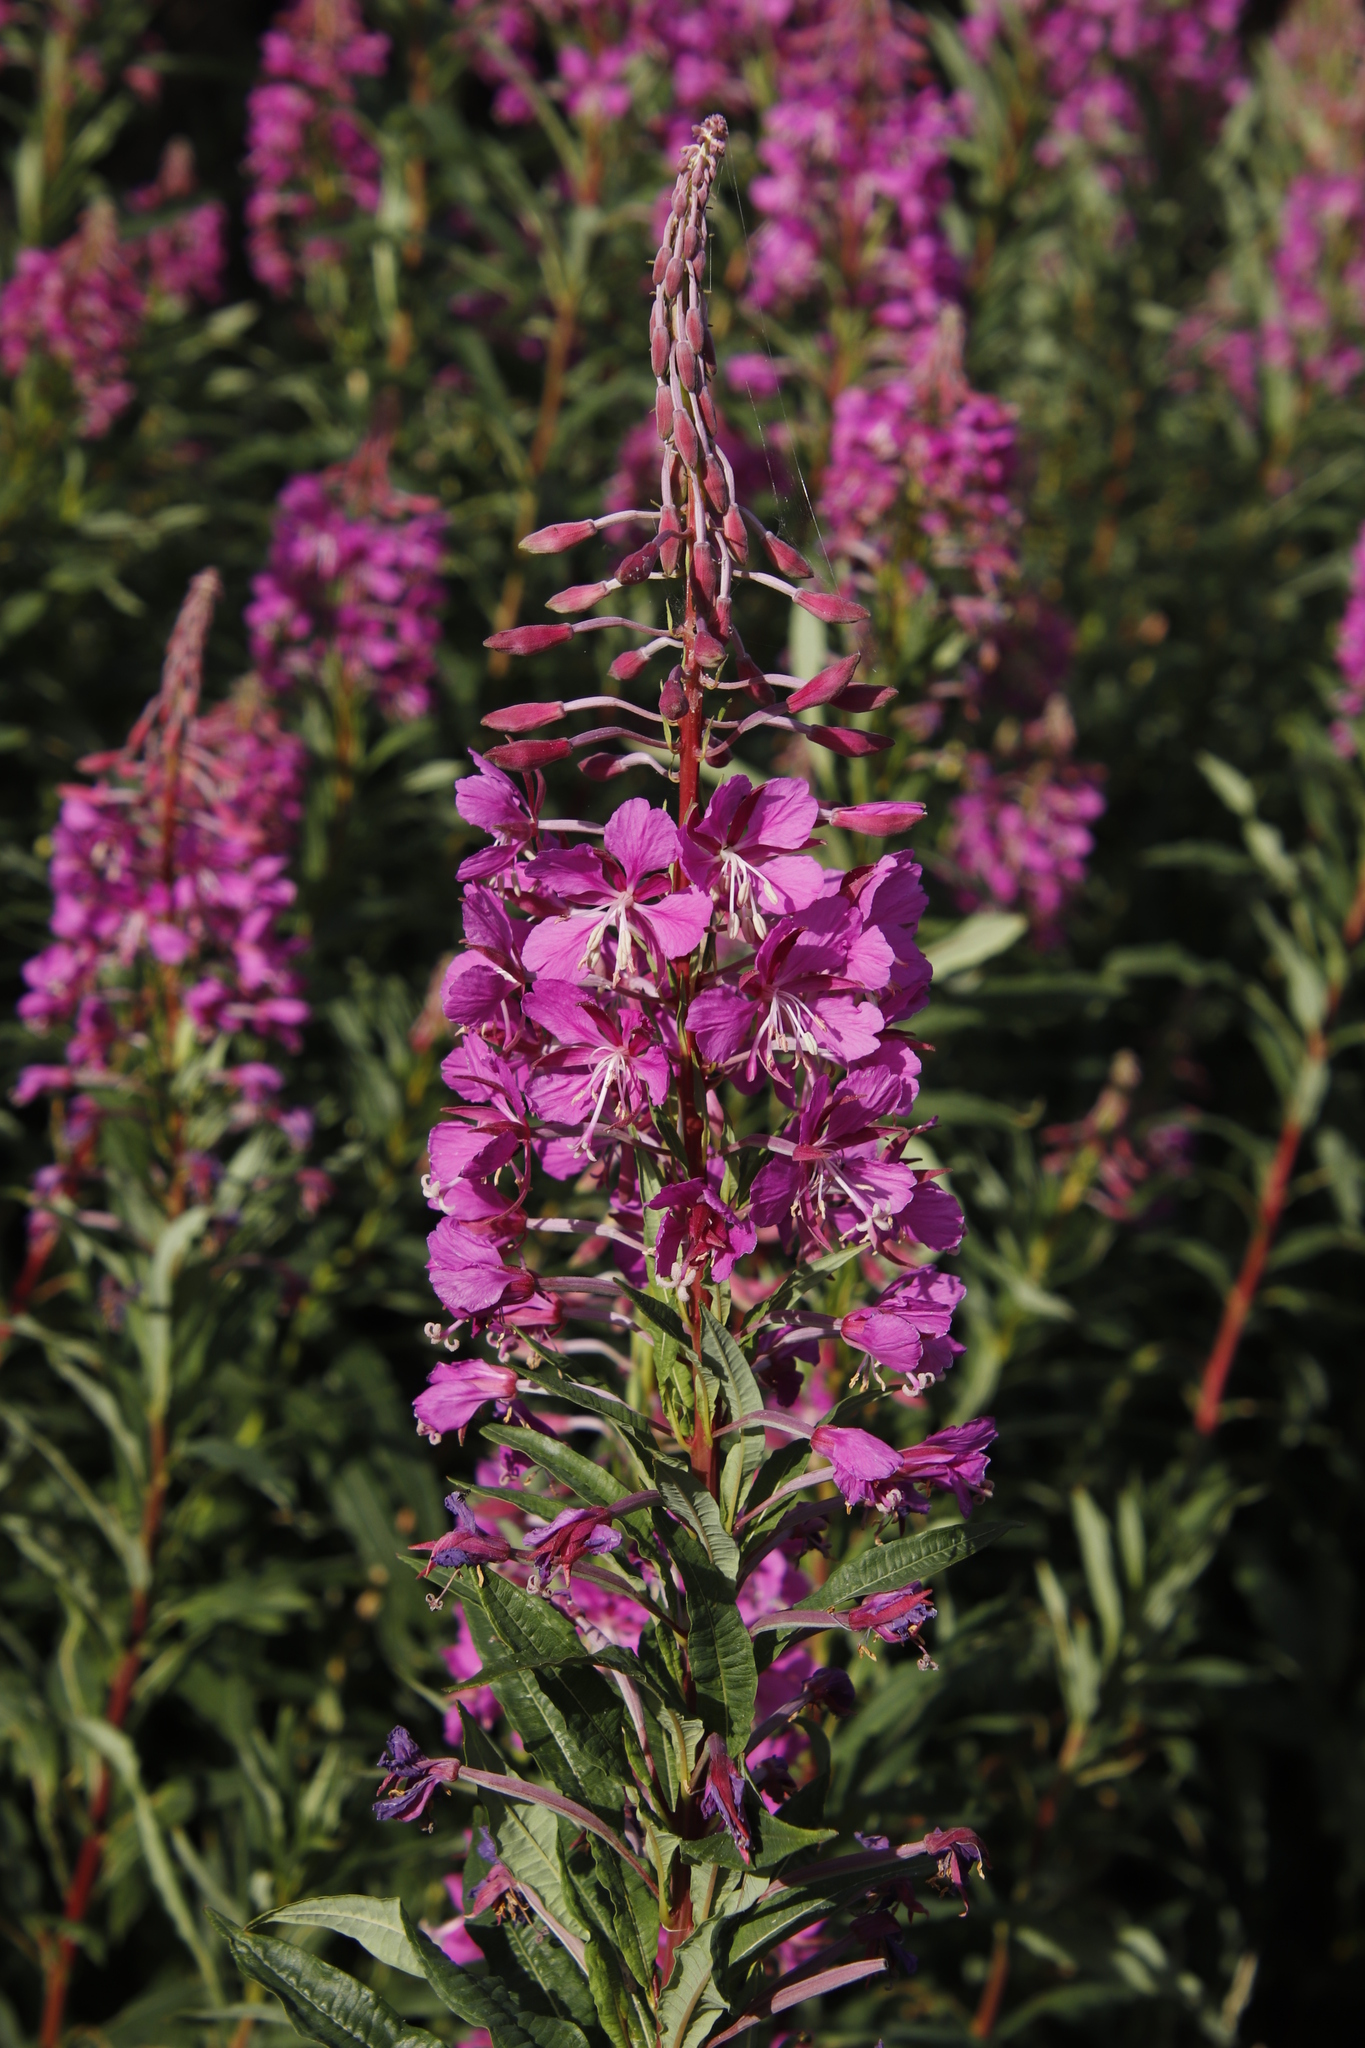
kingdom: Plantae
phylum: Tracheophyta
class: Magnoliopsida
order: Myrtales
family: Onagraceae
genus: Chamaenerion
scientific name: Chamaenerion angustifolium
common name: Fireweed
